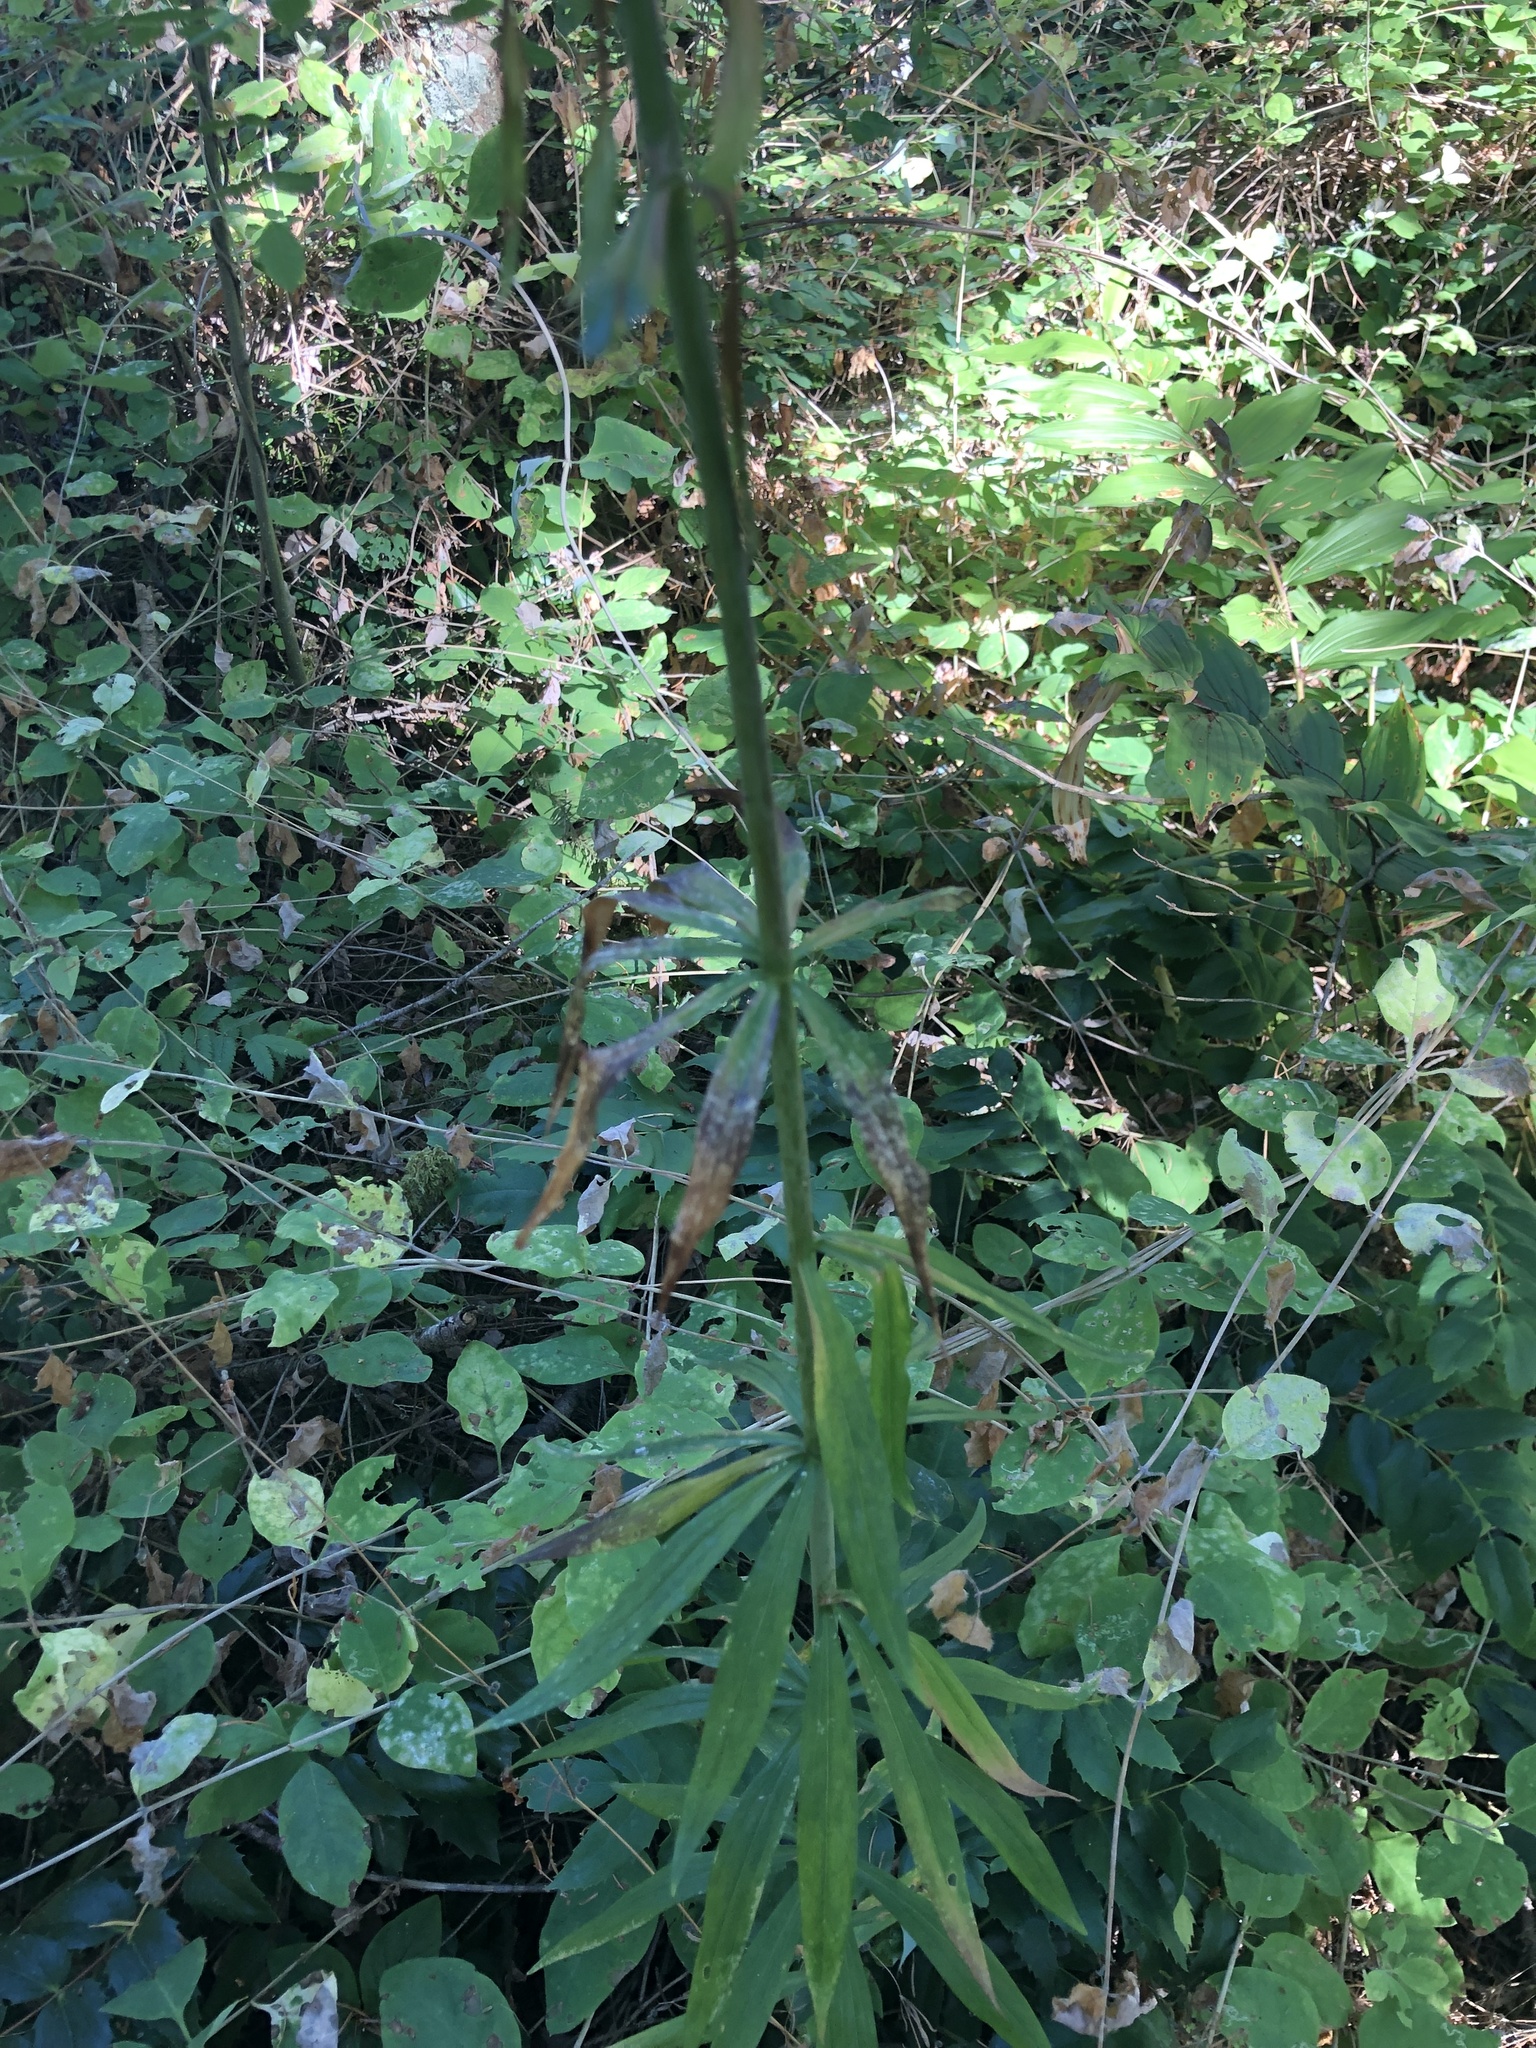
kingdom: Plantae
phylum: Tracheophyta
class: Liliopsida
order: Liliales
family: Liliaceae
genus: Lilium
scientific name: Lilium columbianum
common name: Columbia lily
